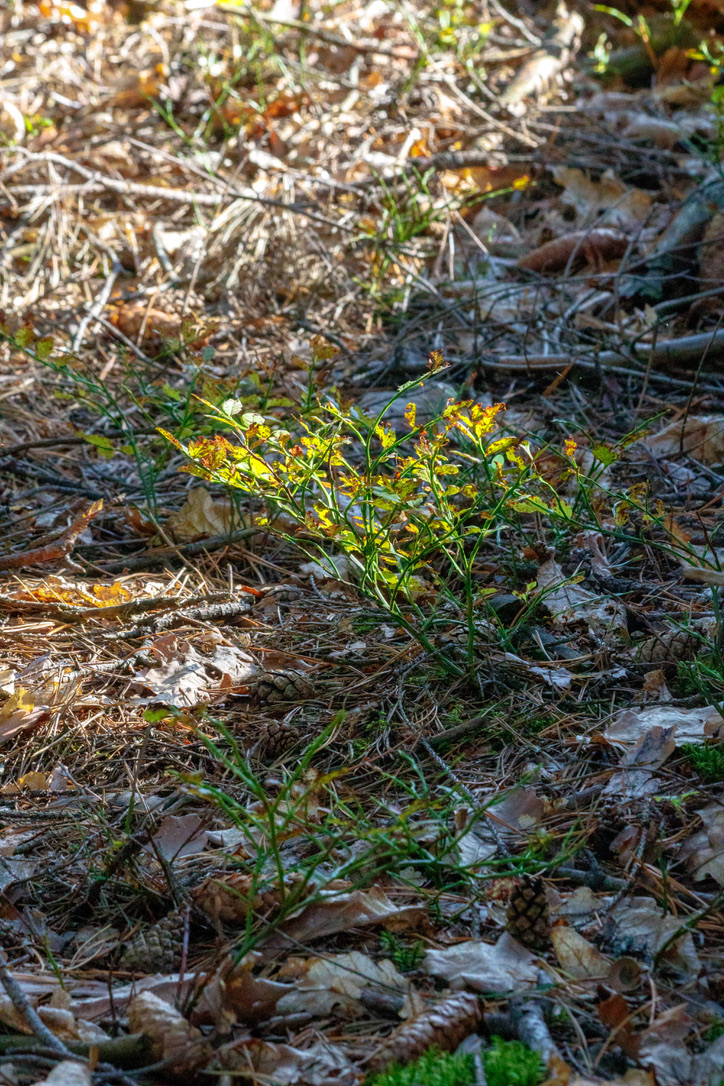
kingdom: Plantae
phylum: Tracheophyta
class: Magnoliopsida
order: Ericales
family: Ericaceae
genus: Vaccinium
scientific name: Vaccinium myrtillus
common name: Bilberry
